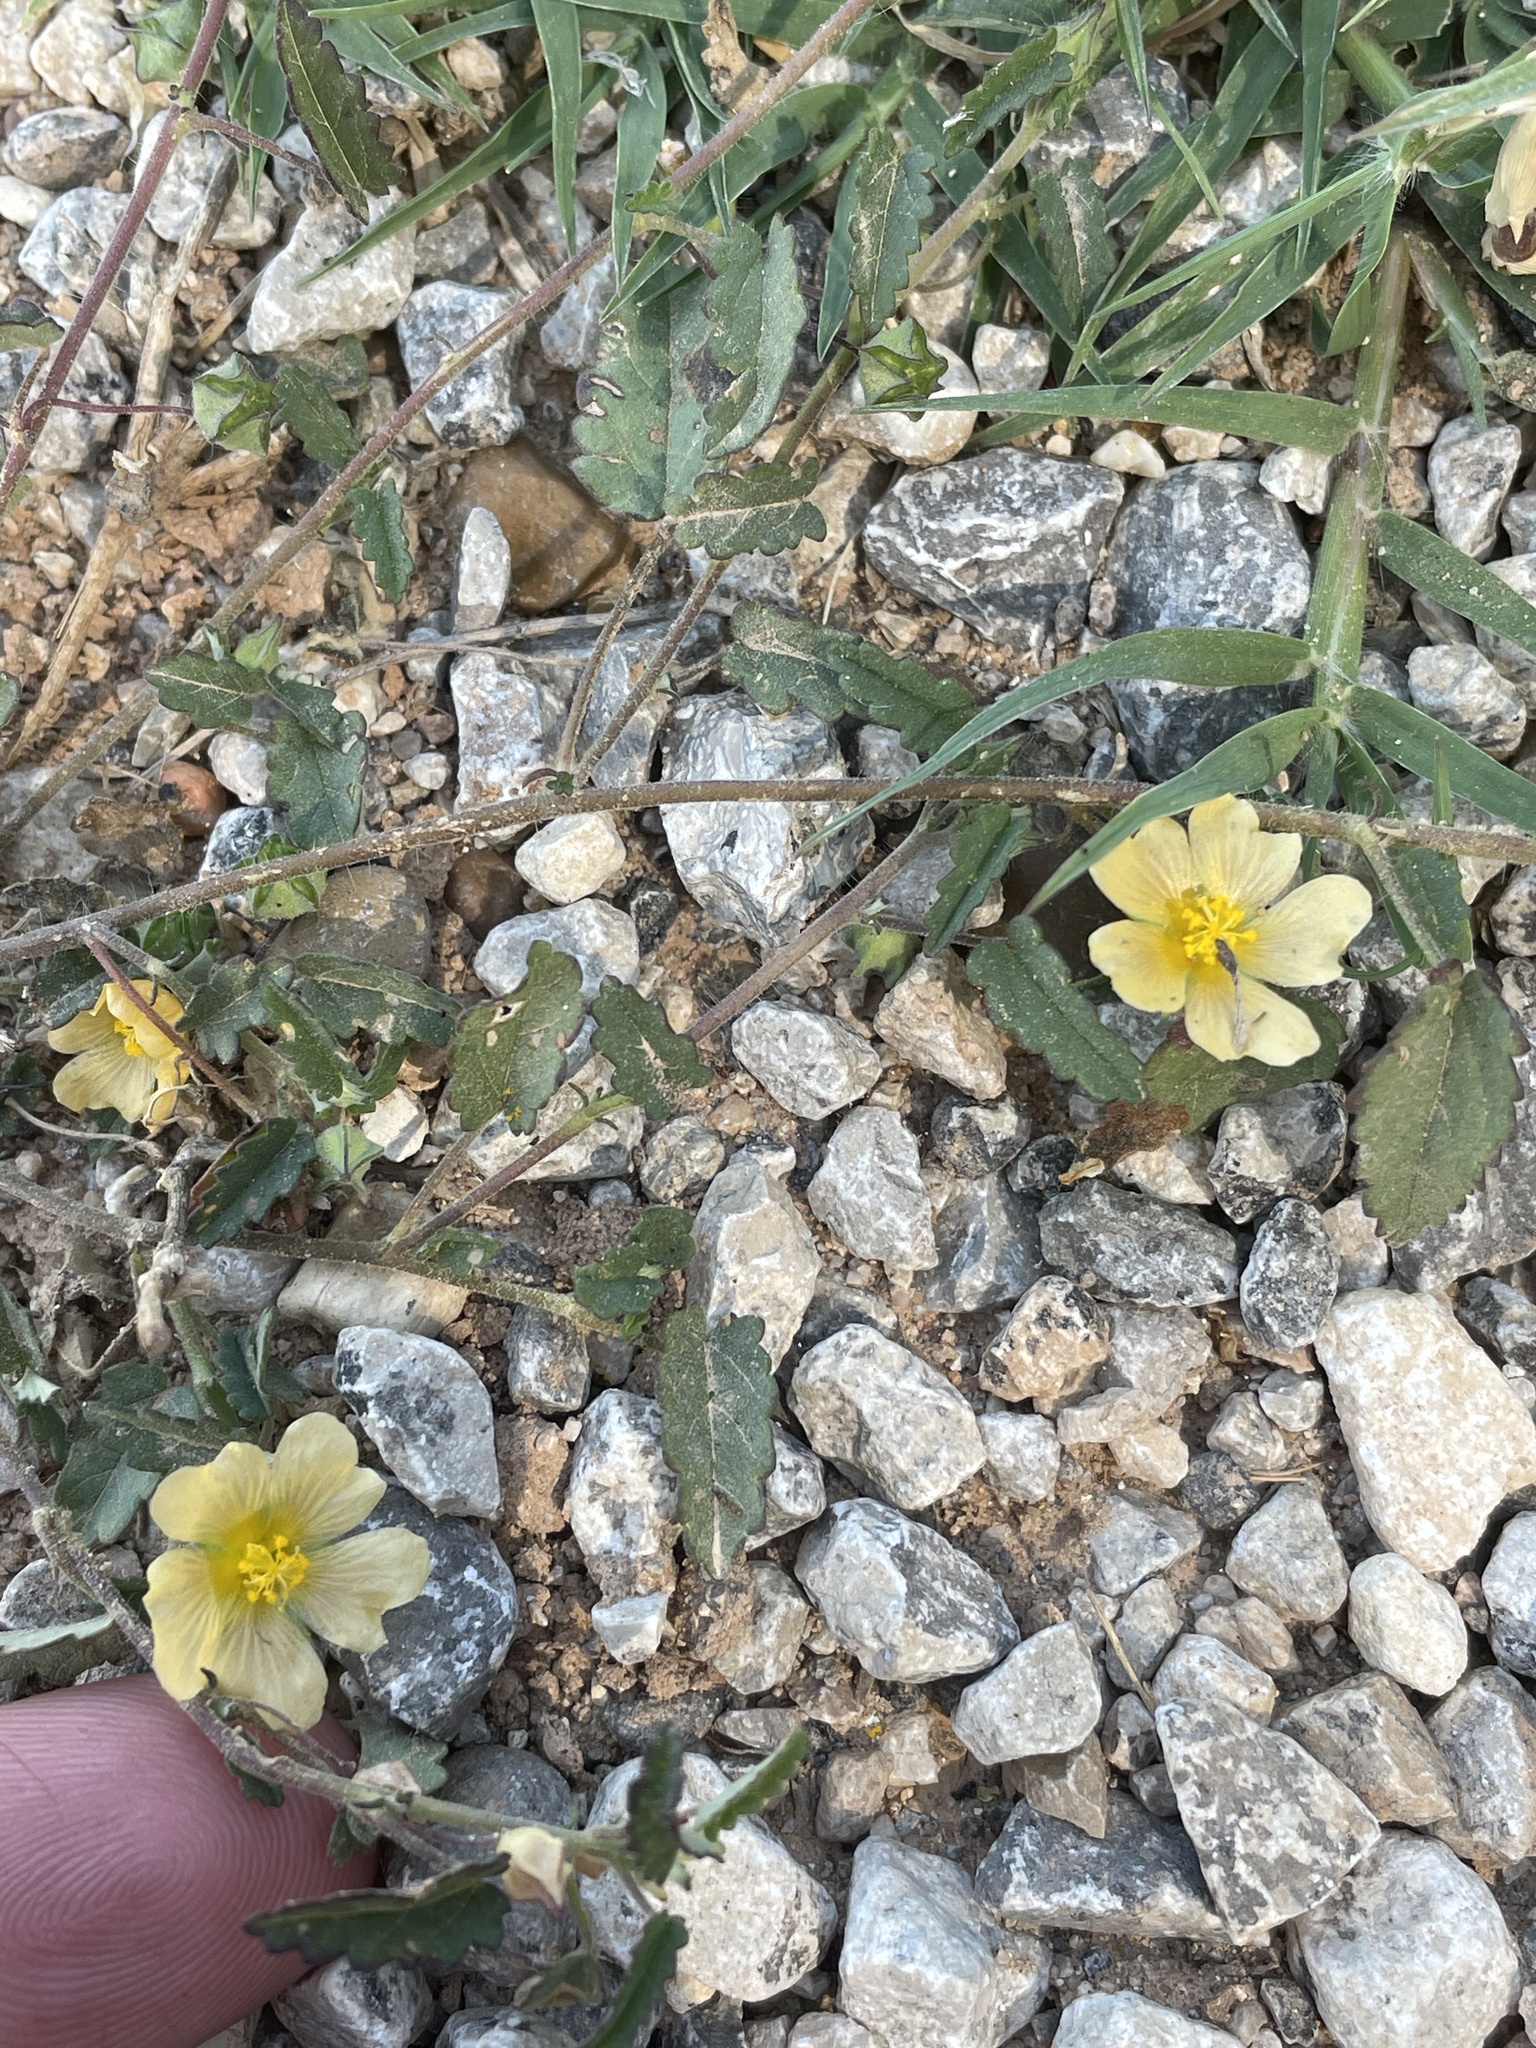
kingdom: Plantae
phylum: Tracheophyta
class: Magnoliopsida
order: Malvales
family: Malvaceae
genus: Sida
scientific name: Sida abutilifolia
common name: Spreading fanpetals
